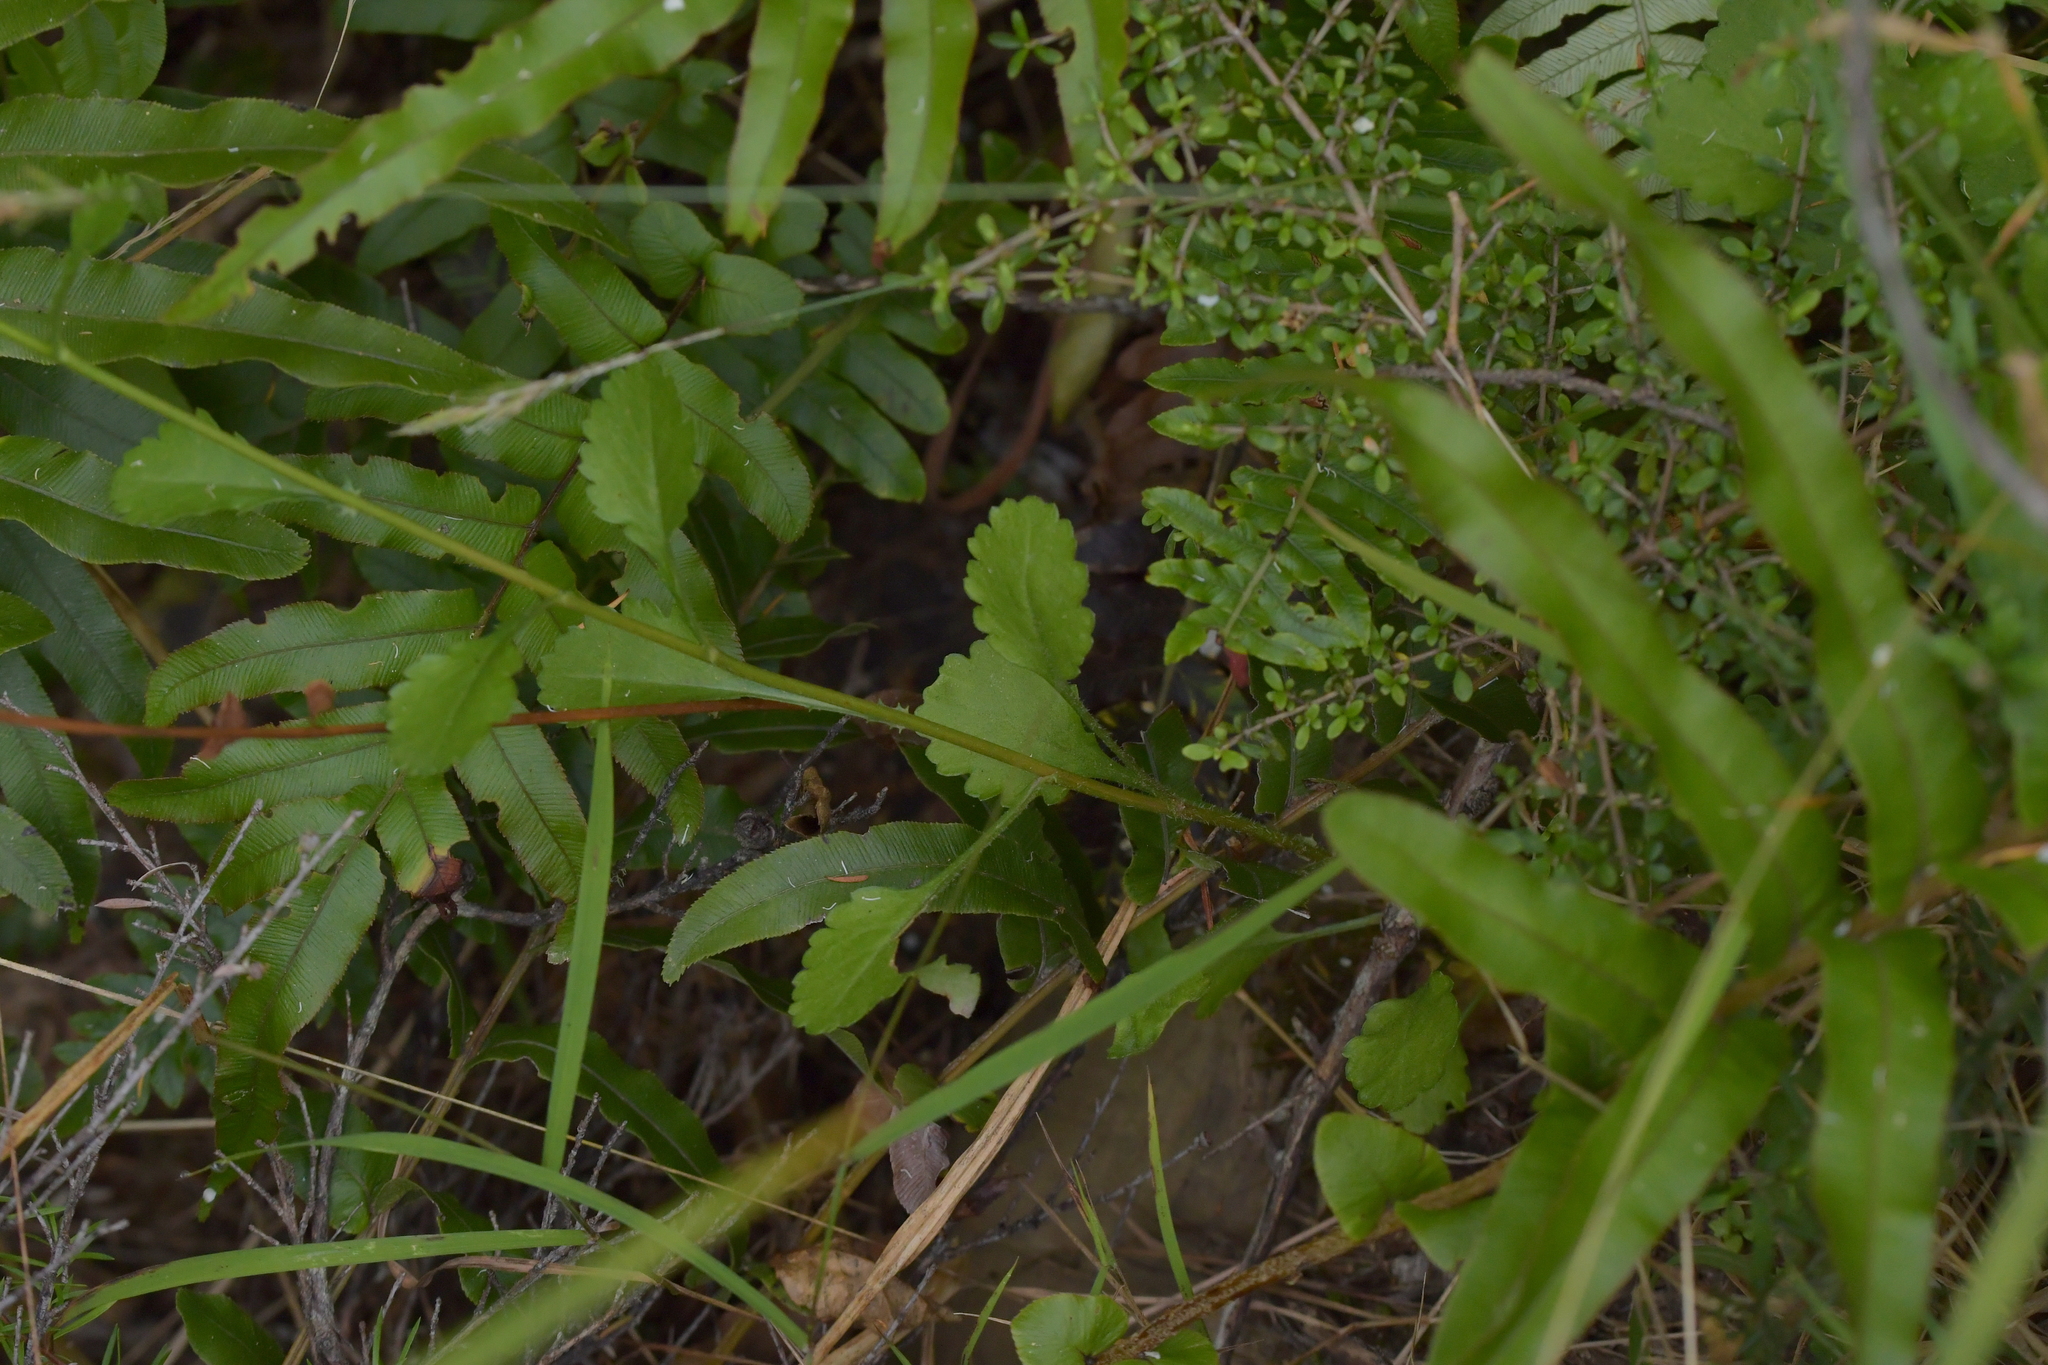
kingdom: Plantae
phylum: Tracheophyta
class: Magnoliopsida
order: Asterales
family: Asteraceae
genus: Leucanthemum
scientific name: Leucanthemum vulgare
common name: Oxeye daisy
